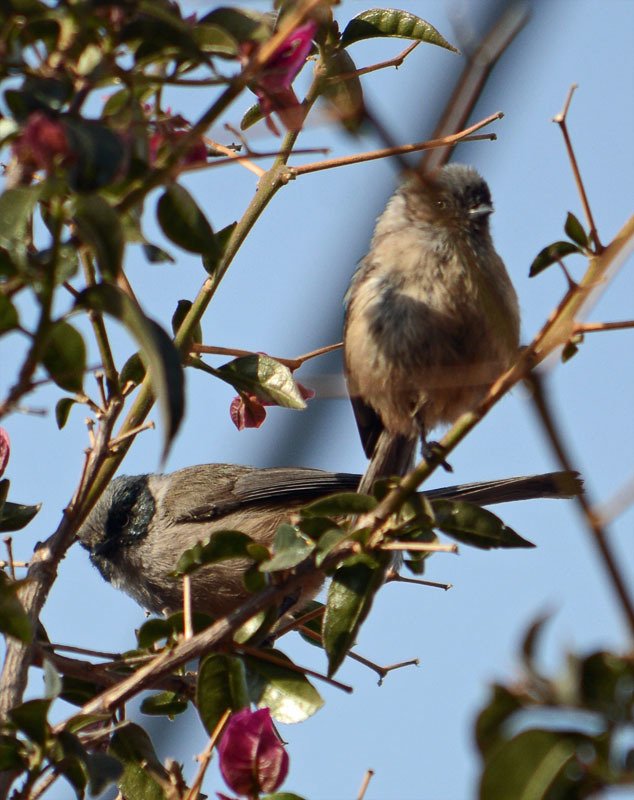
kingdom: Animalia
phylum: Chordata
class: Aves
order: Passeriformes
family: Aegithalidae
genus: Psaltriparus
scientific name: Psaltriparus minimus
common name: American bushtit
